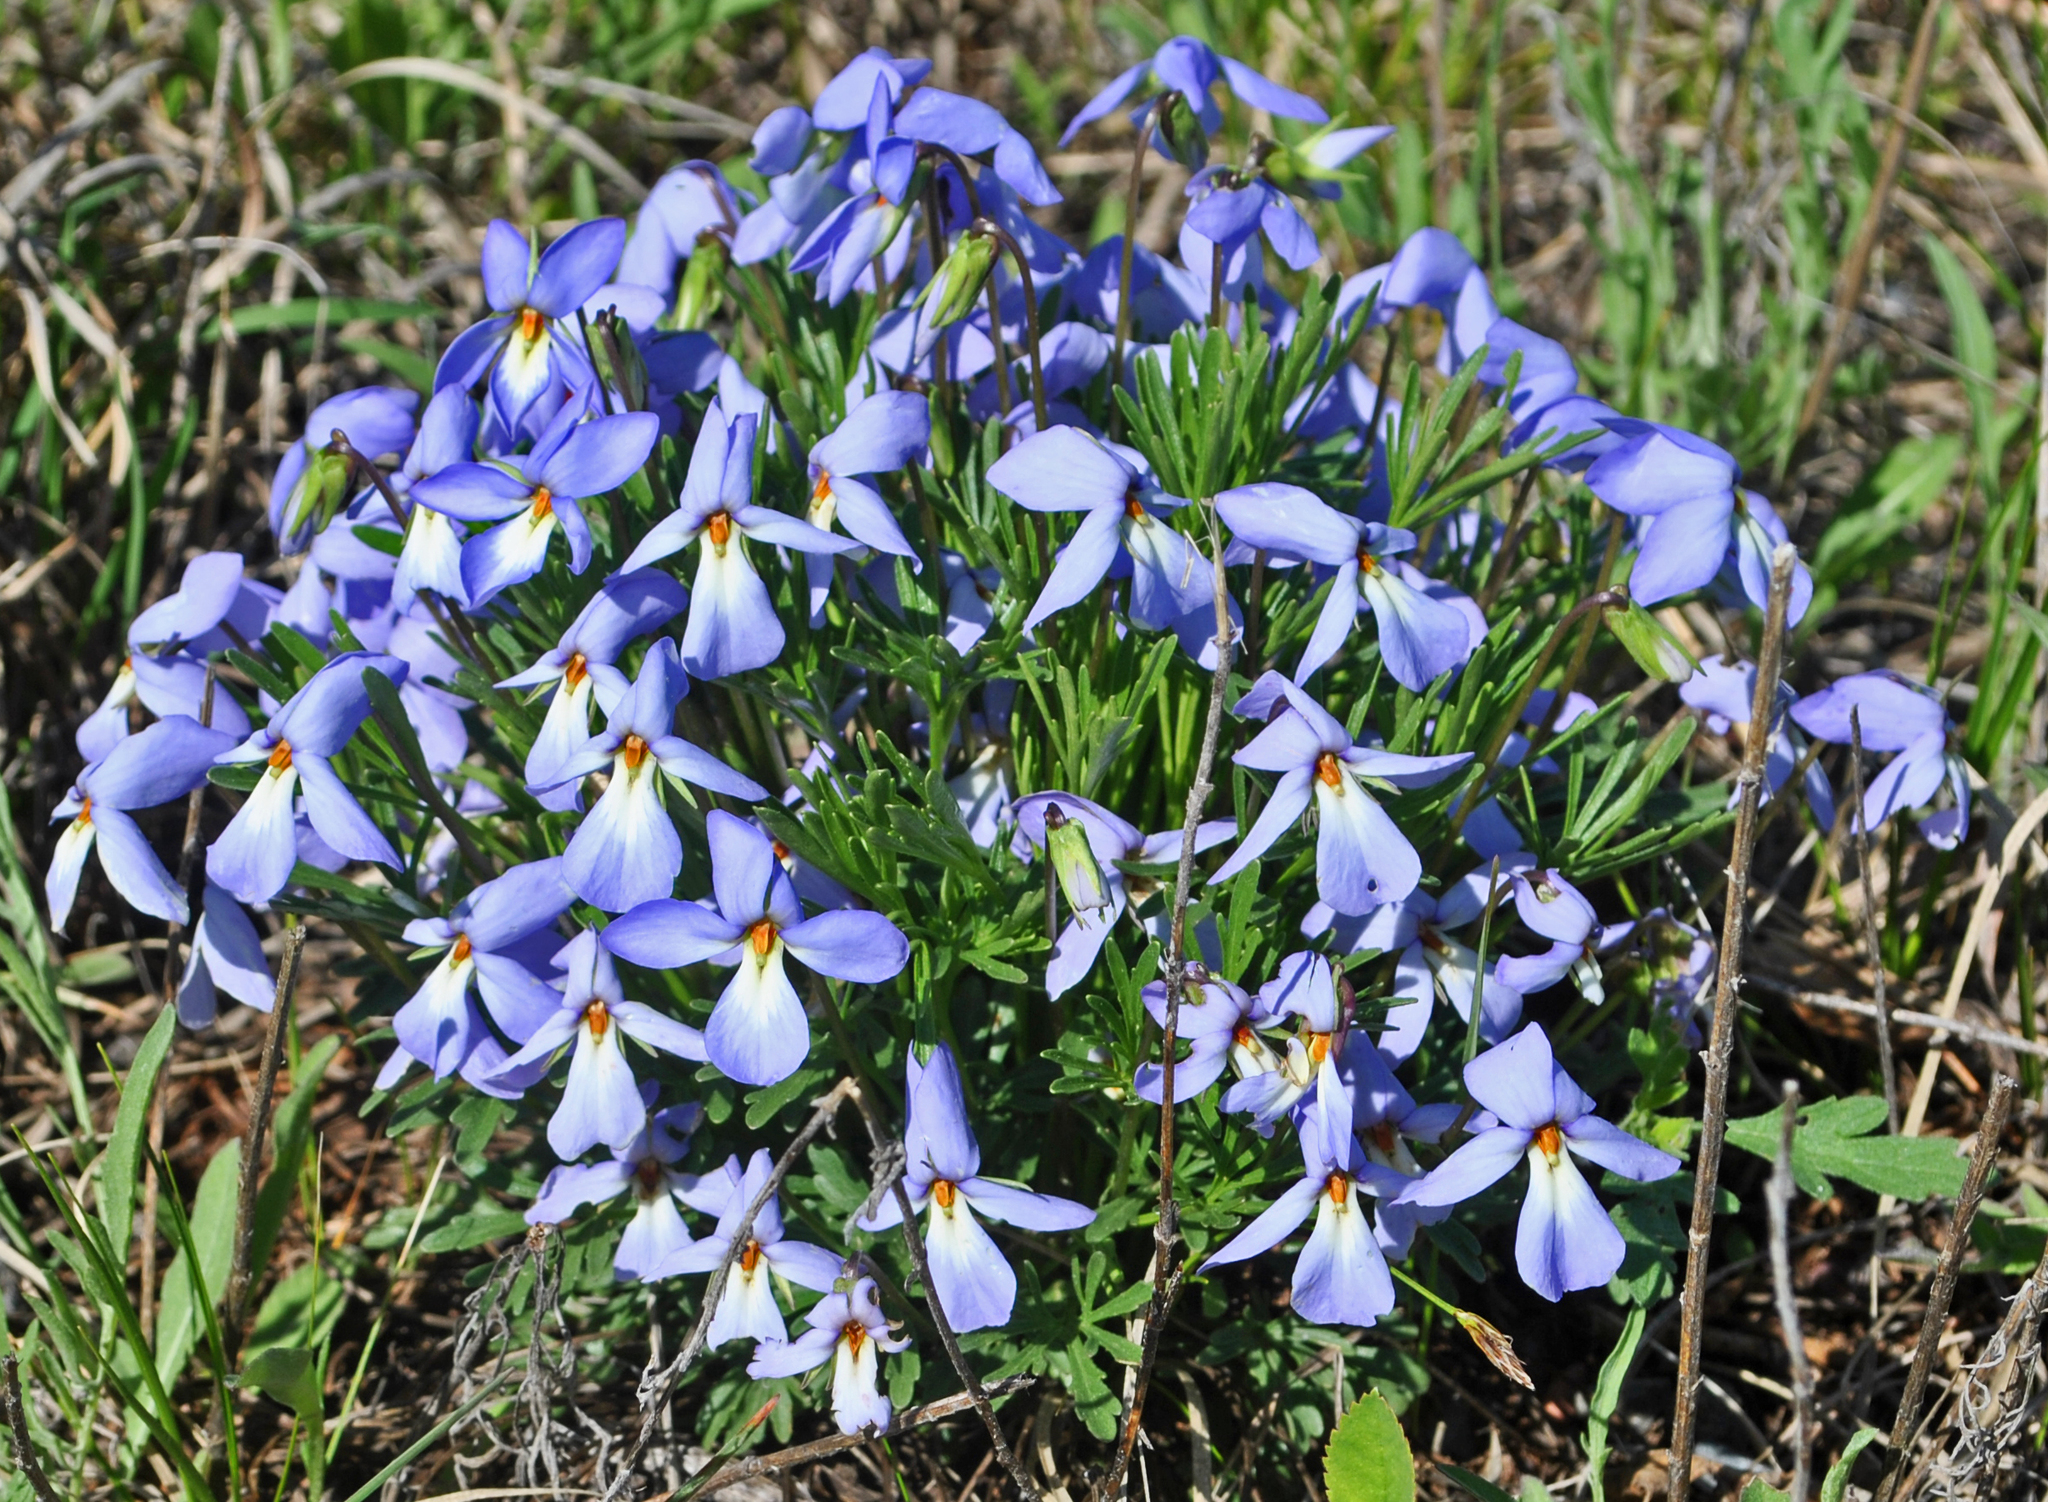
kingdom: Plantae
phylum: Tracheophyta
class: Magnoliopsida
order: Malpighiales
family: Violaceae
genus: Viola
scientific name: Viola pedata
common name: Pansy violet
